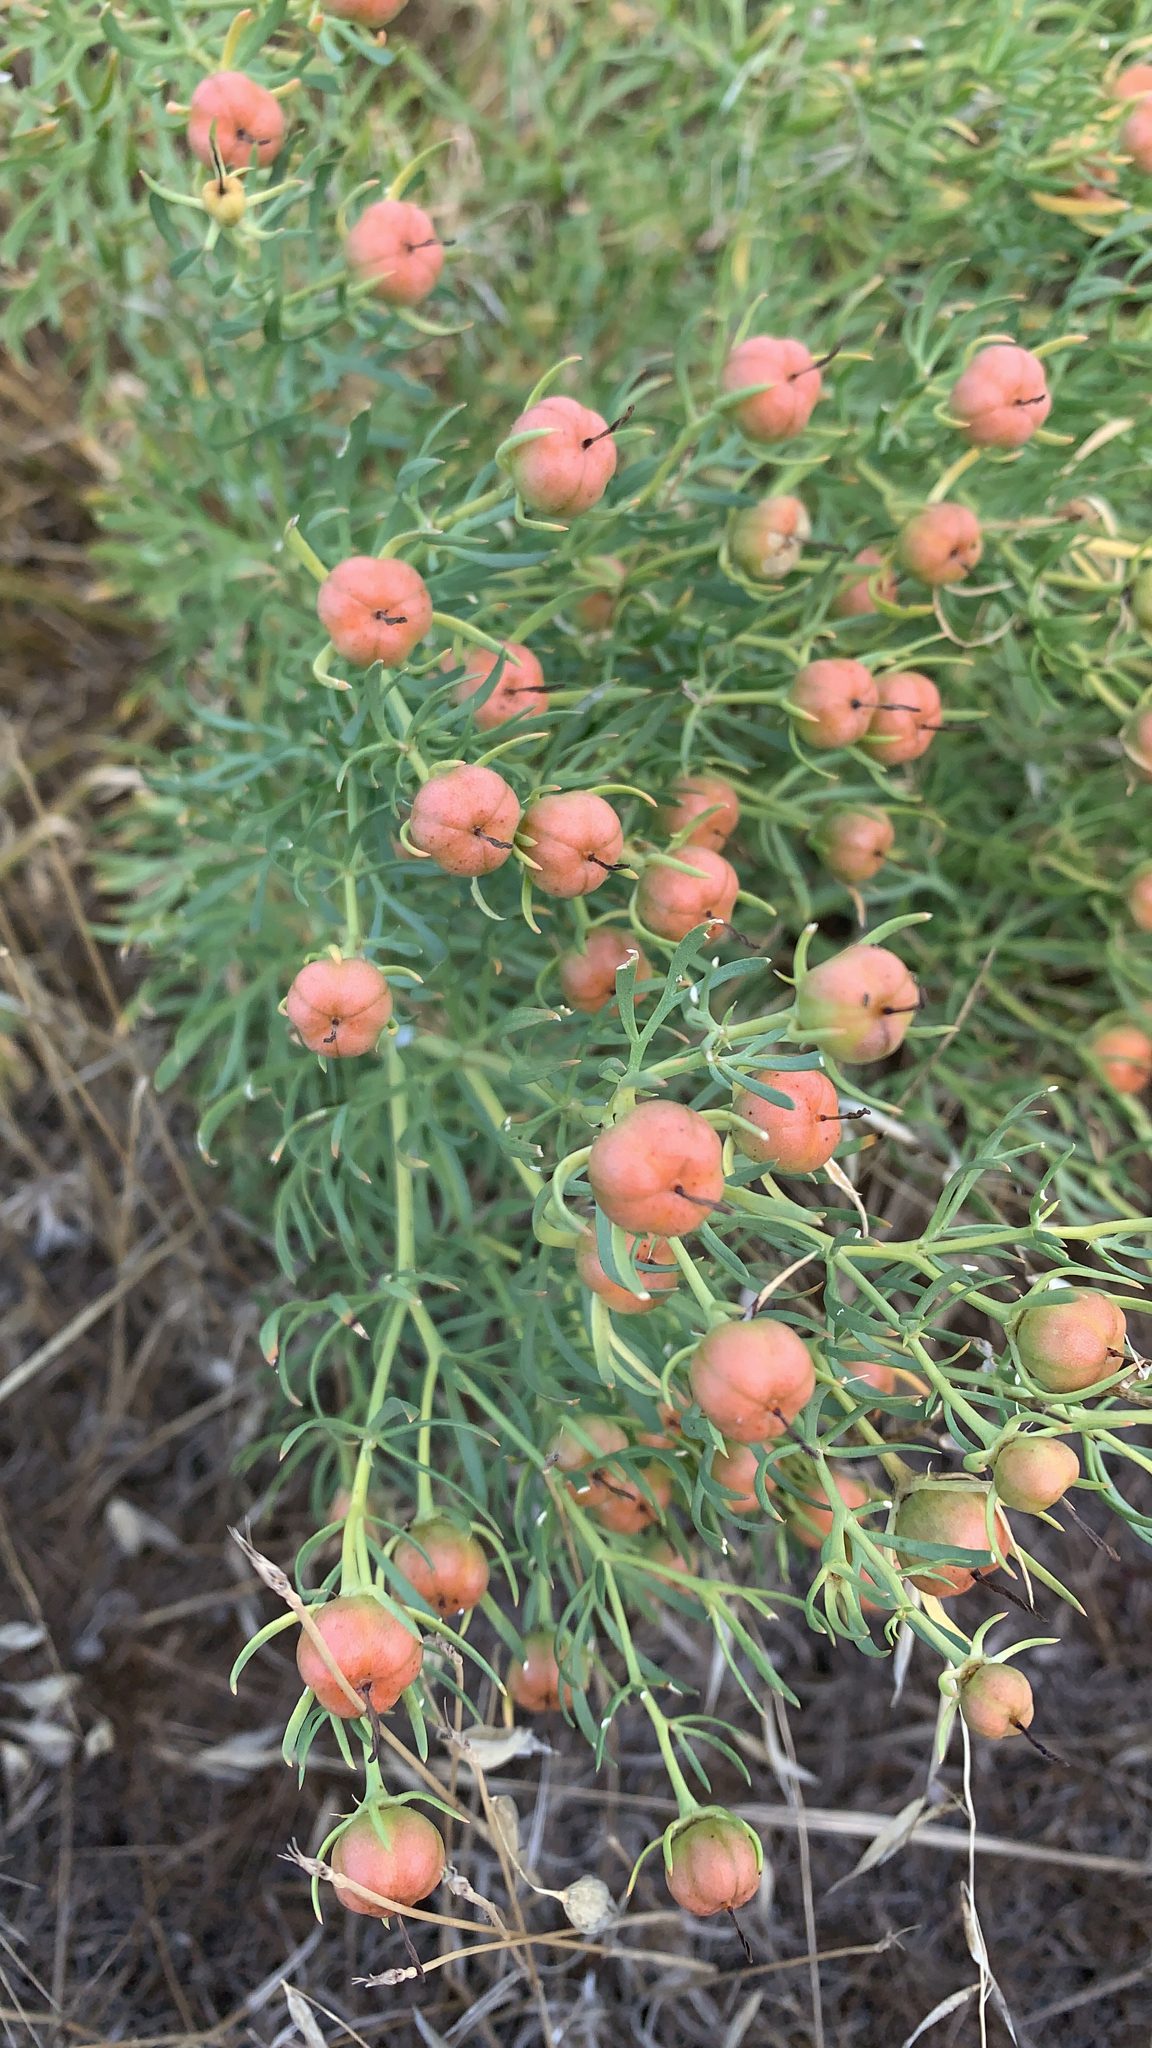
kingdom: Plantae
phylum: Tracheophyta
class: Magnoliopsida
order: Sapindales
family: Tetradiclidaceae
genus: Peganum
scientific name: Peganum harmala
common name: Harmal peganum
